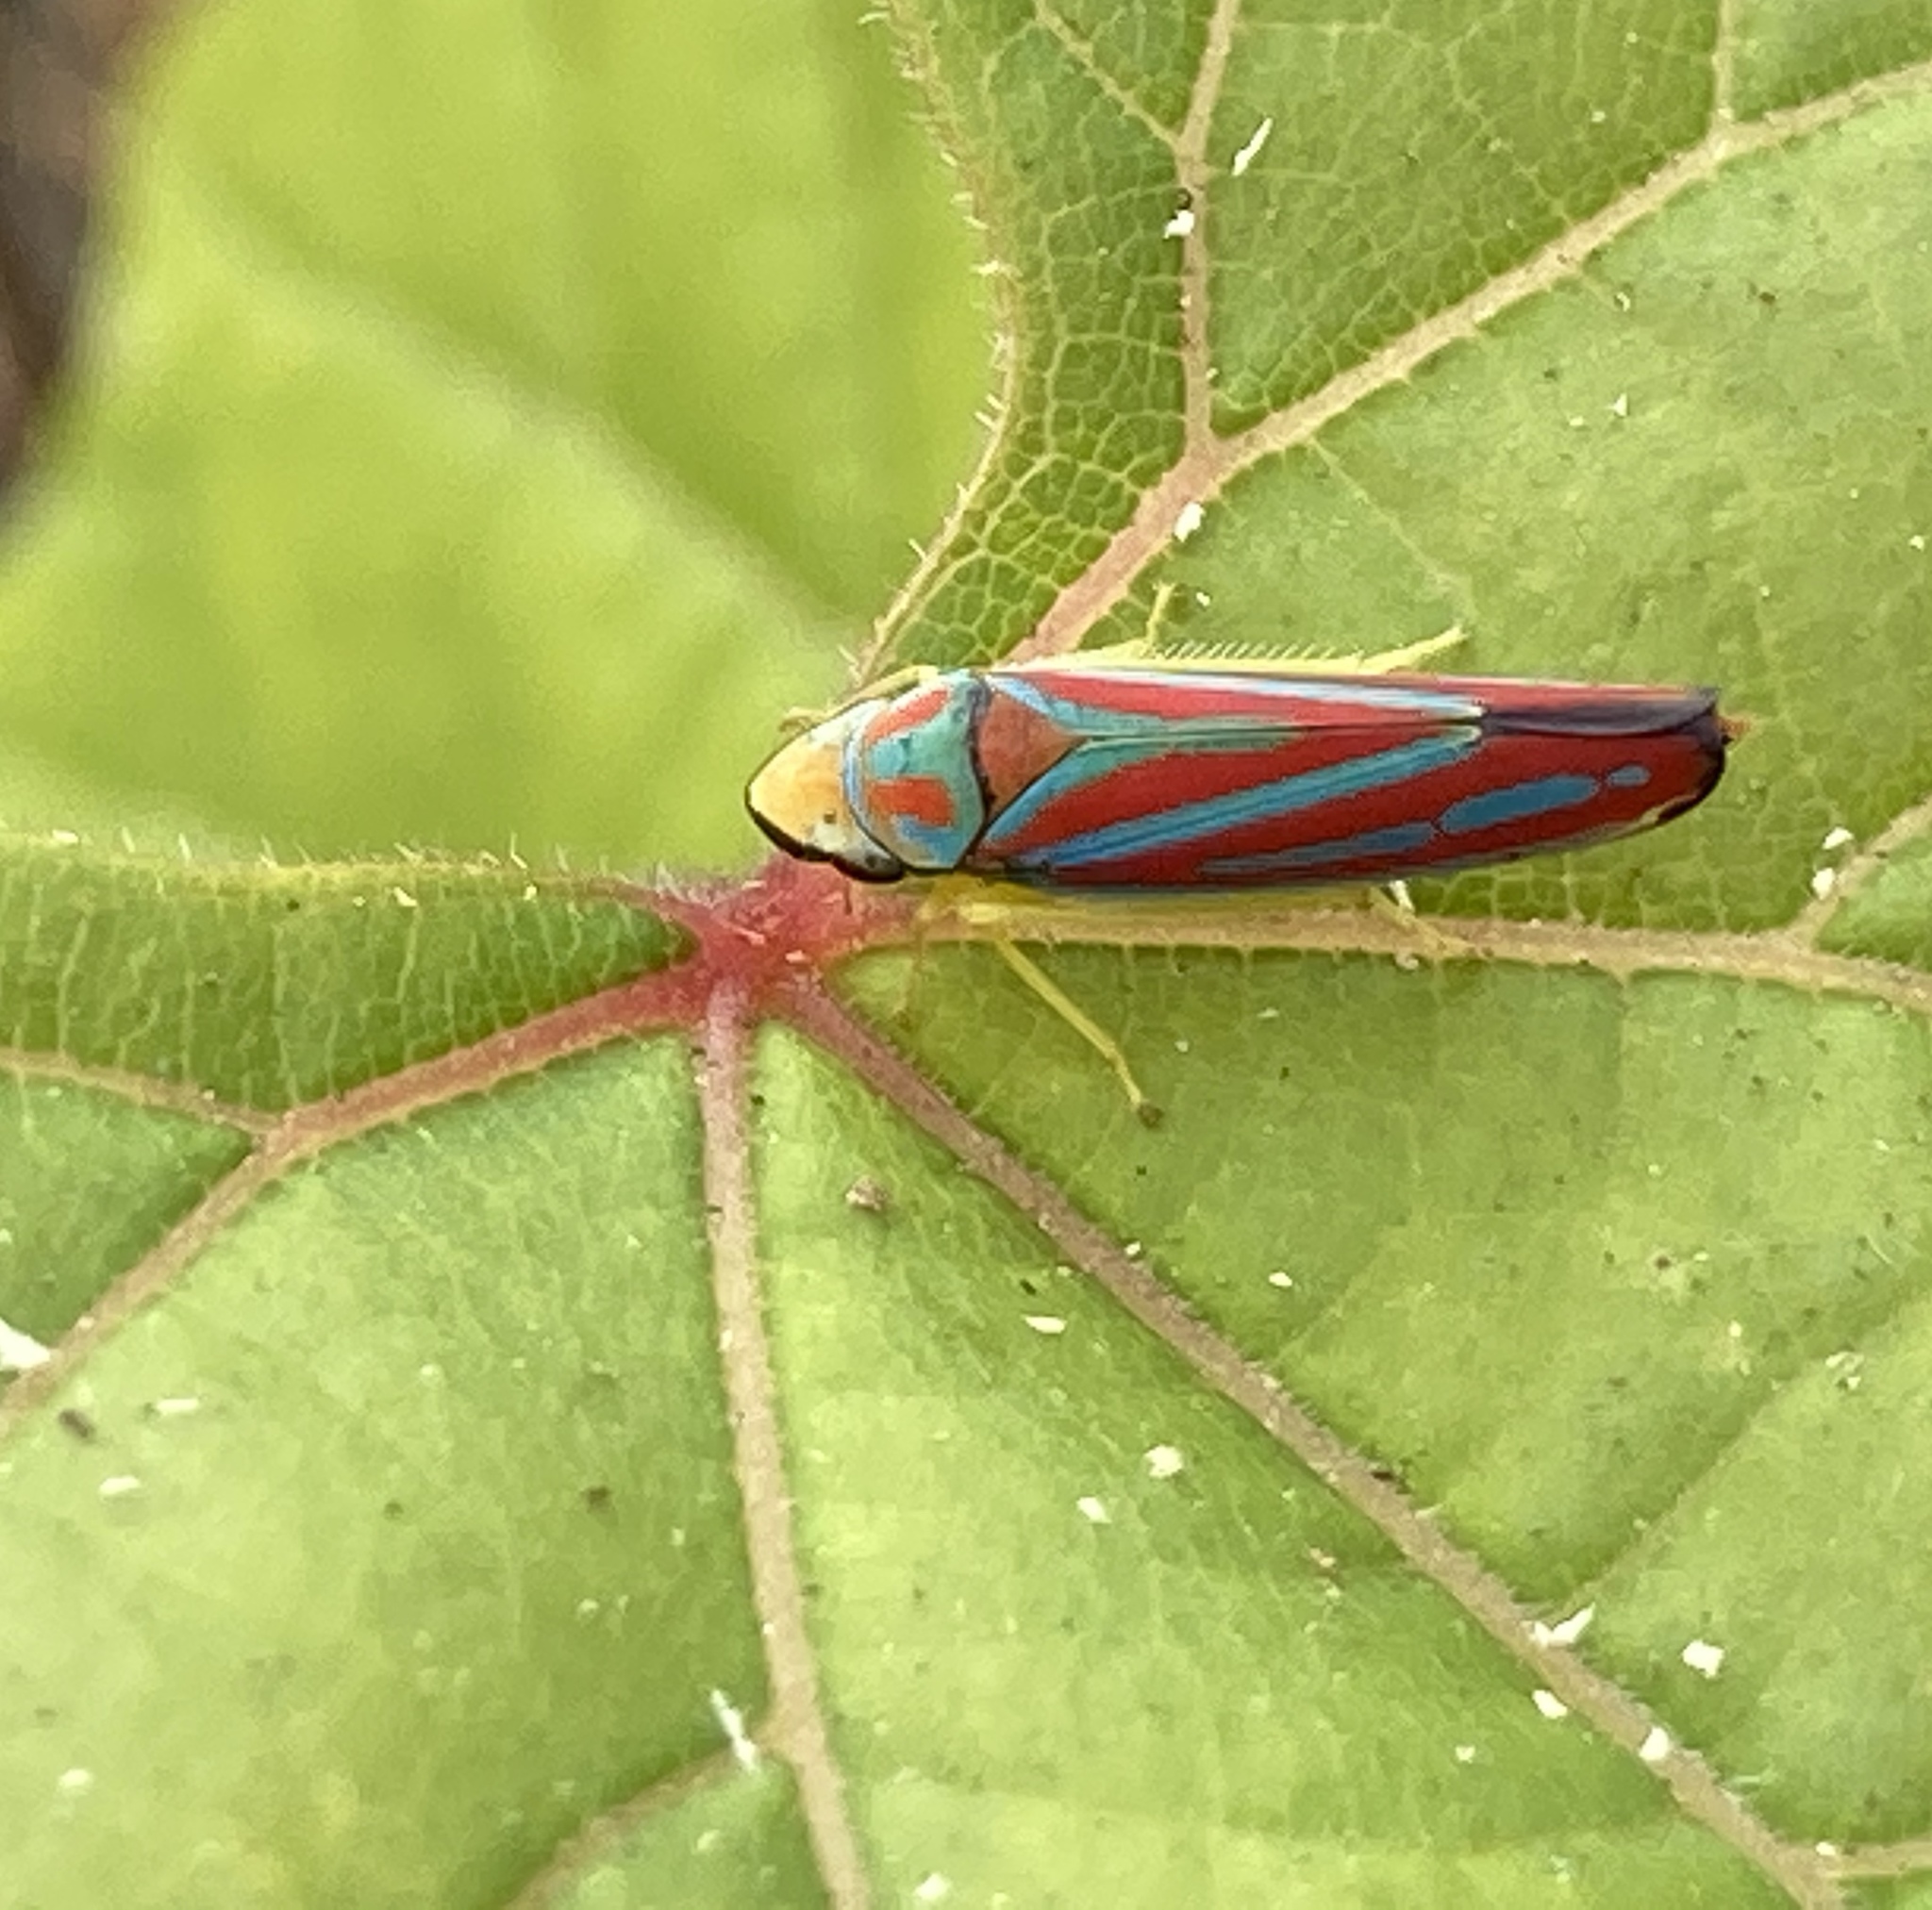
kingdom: Animalia
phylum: Arthropoda
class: Insecta
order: Hemiptera
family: Cicadellidae
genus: Graphocephala
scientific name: Graphocephala coccinea
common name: Candy-striped leafhopper
